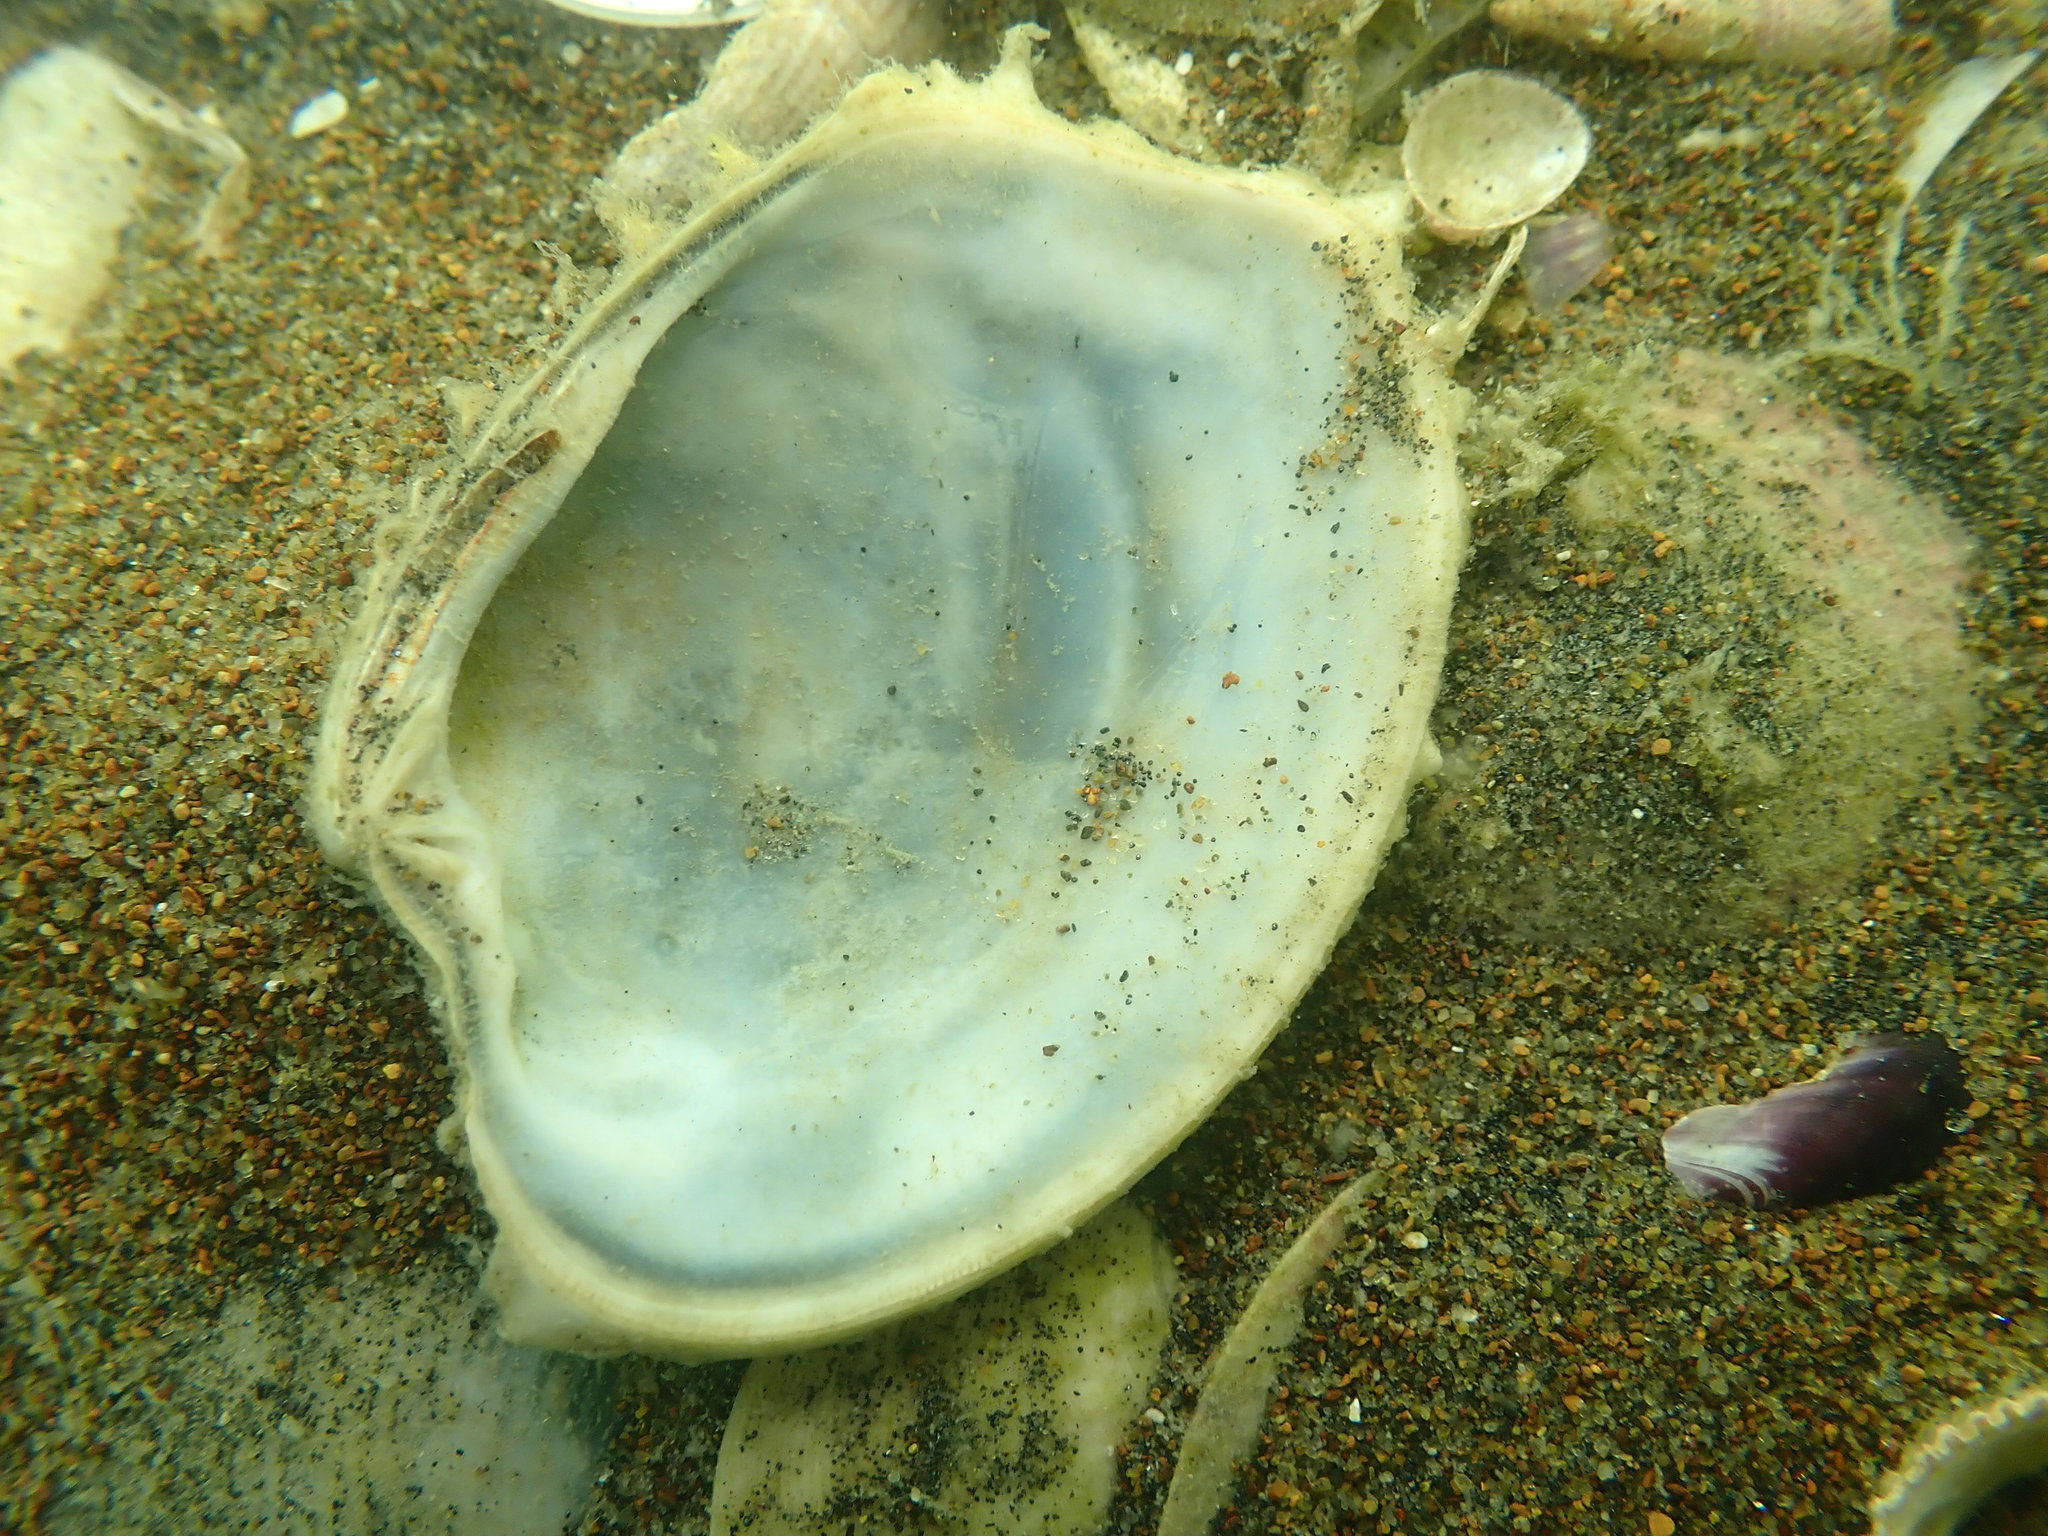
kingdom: Animalia
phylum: Mollusca
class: Bivalvia
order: Venerida
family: Veneridae
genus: Bassina
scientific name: Bassina yatei
